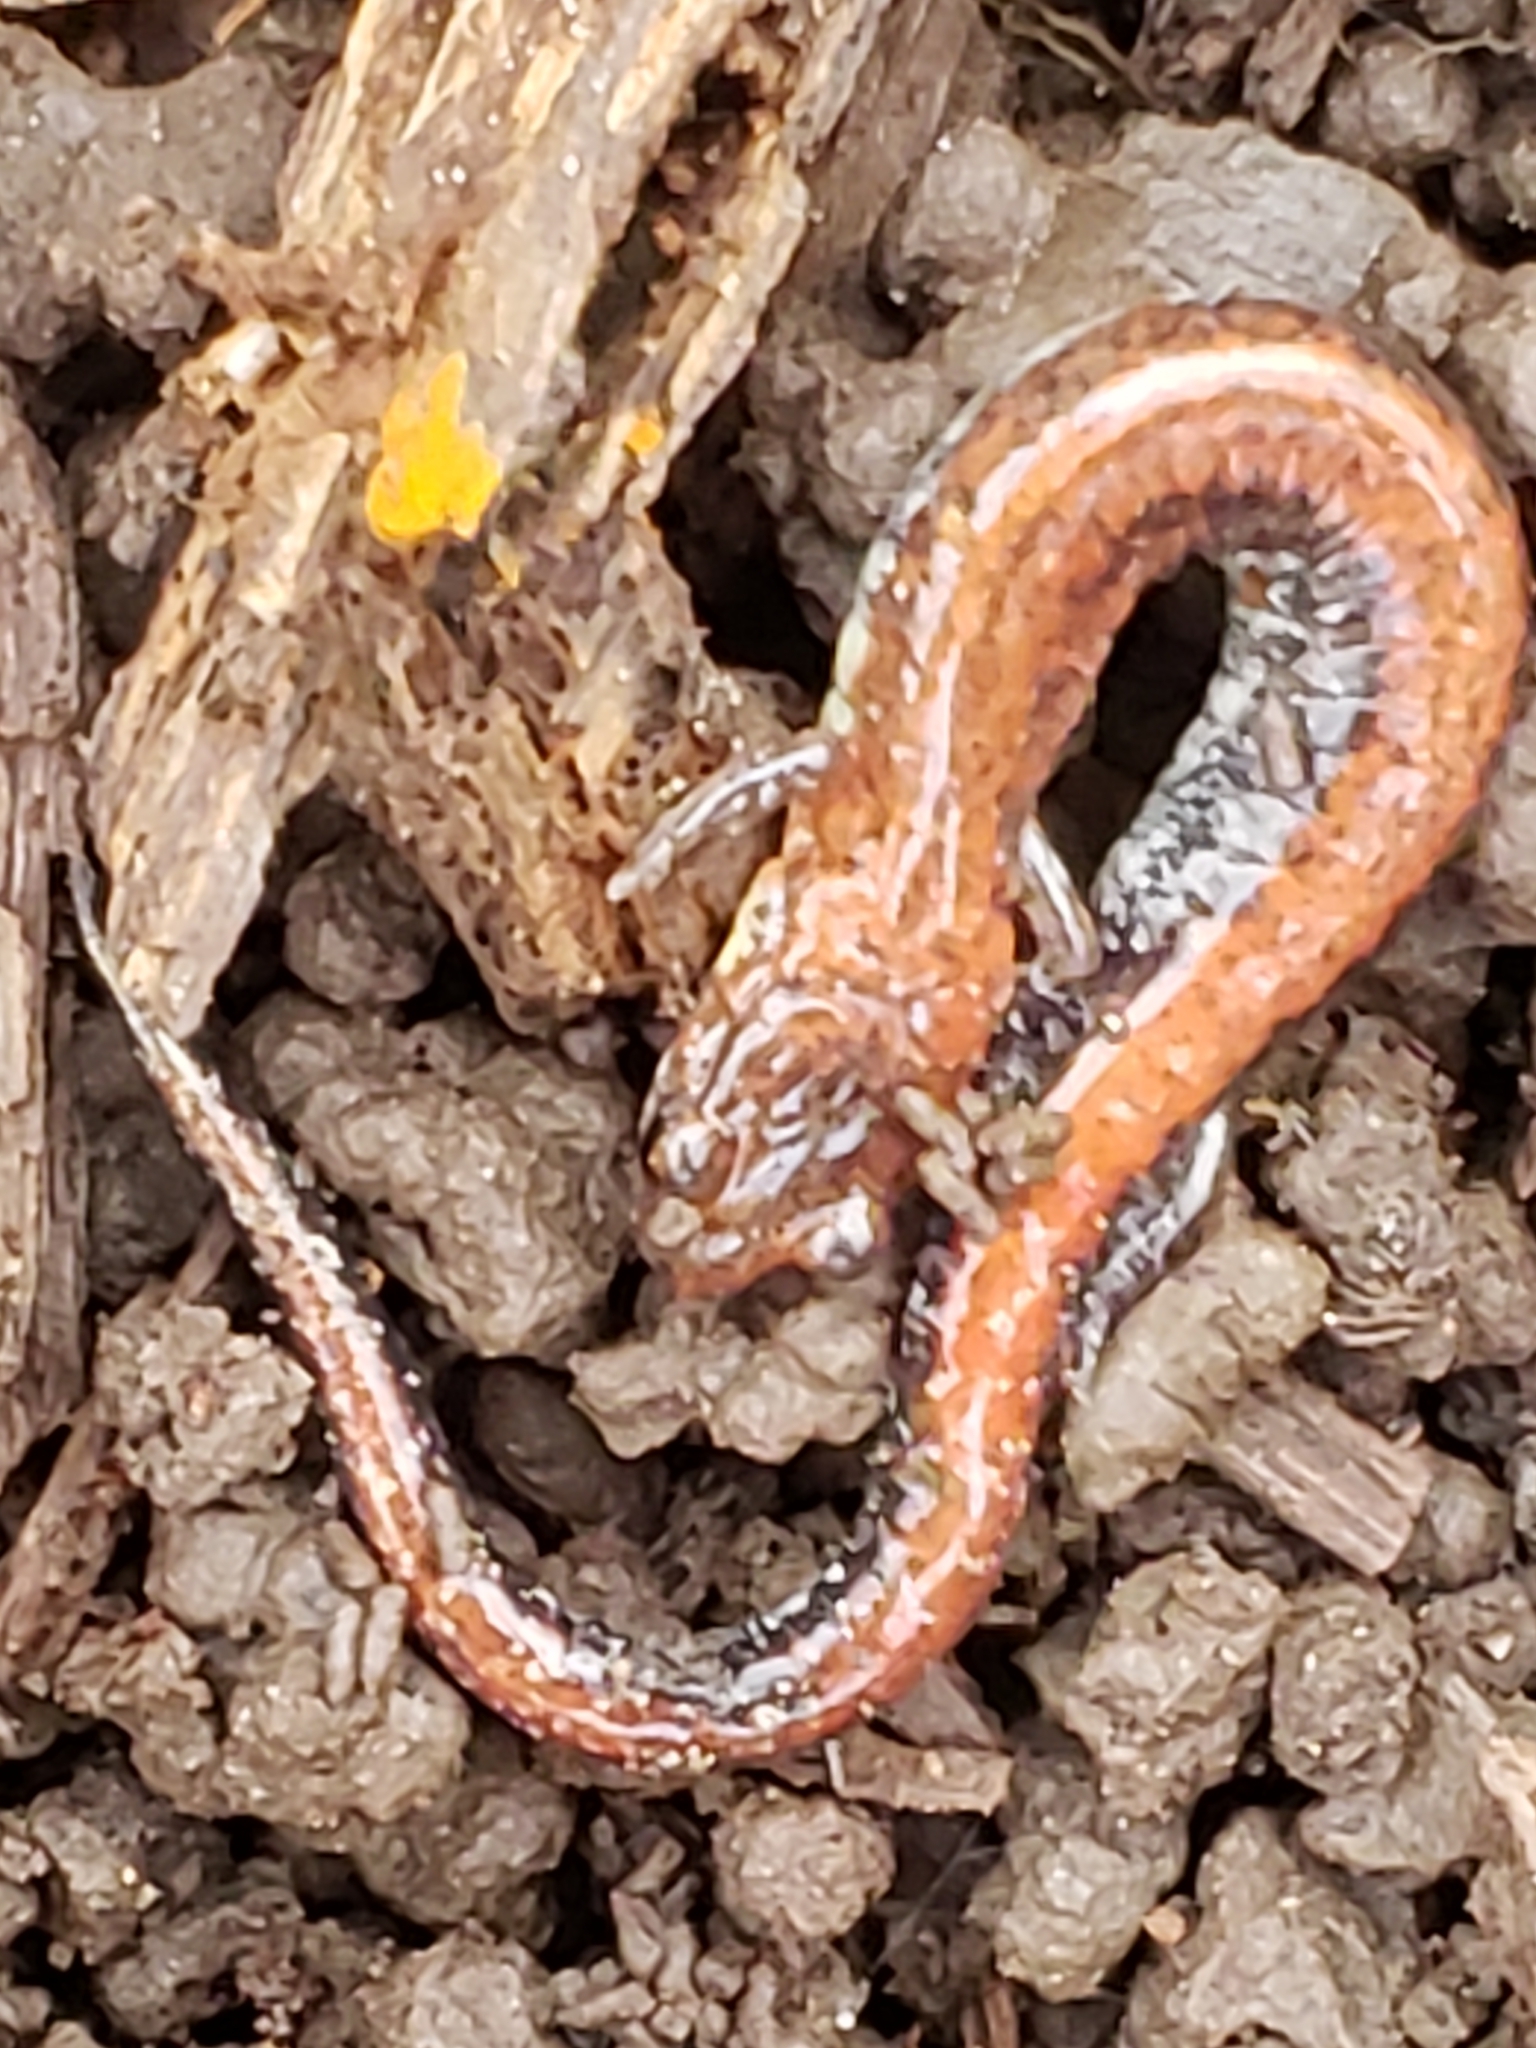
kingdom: Animalia
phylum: Chordata
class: Amphibia
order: Caudata
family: Plethodontidae
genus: Plethodon
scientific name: Plethodon cinereus
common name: Redback salamander
